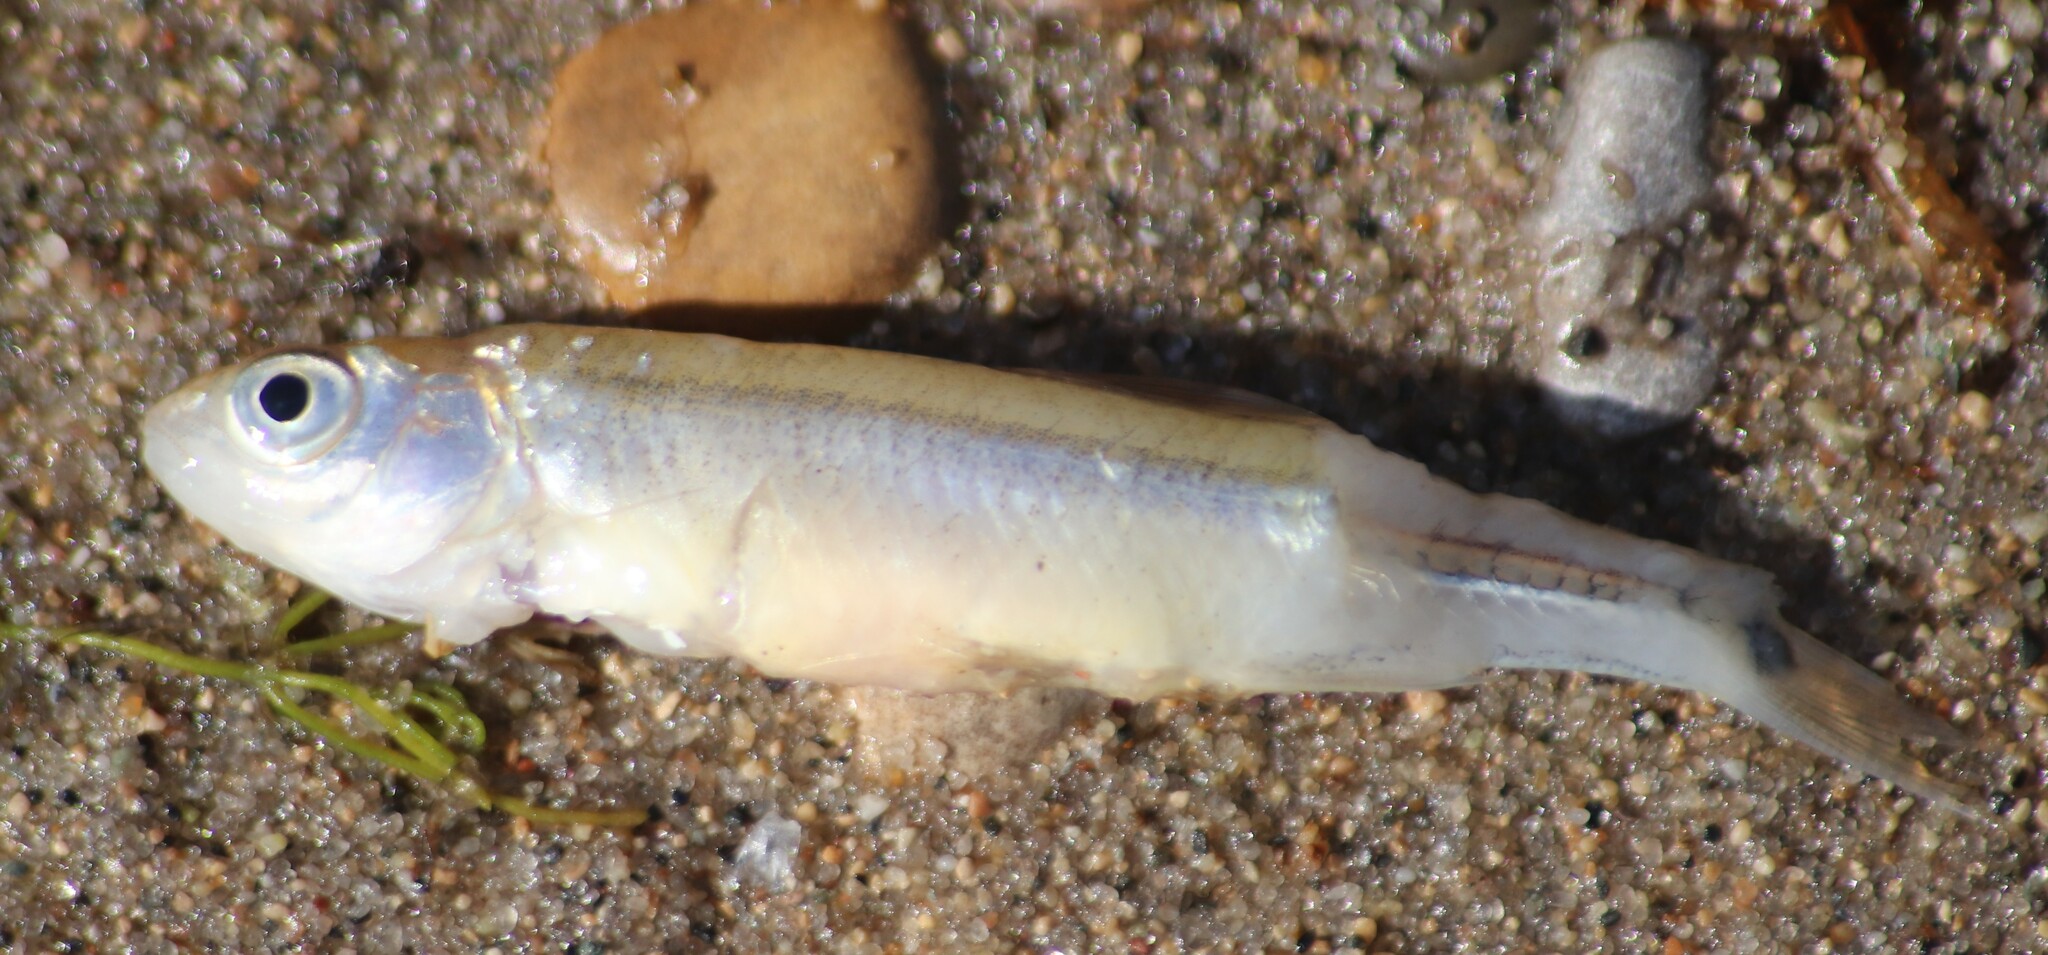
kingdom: Animalia
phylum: Chordata
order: Cypriniformes
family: Cyprinidae
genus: Notropis
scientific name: Notropis
